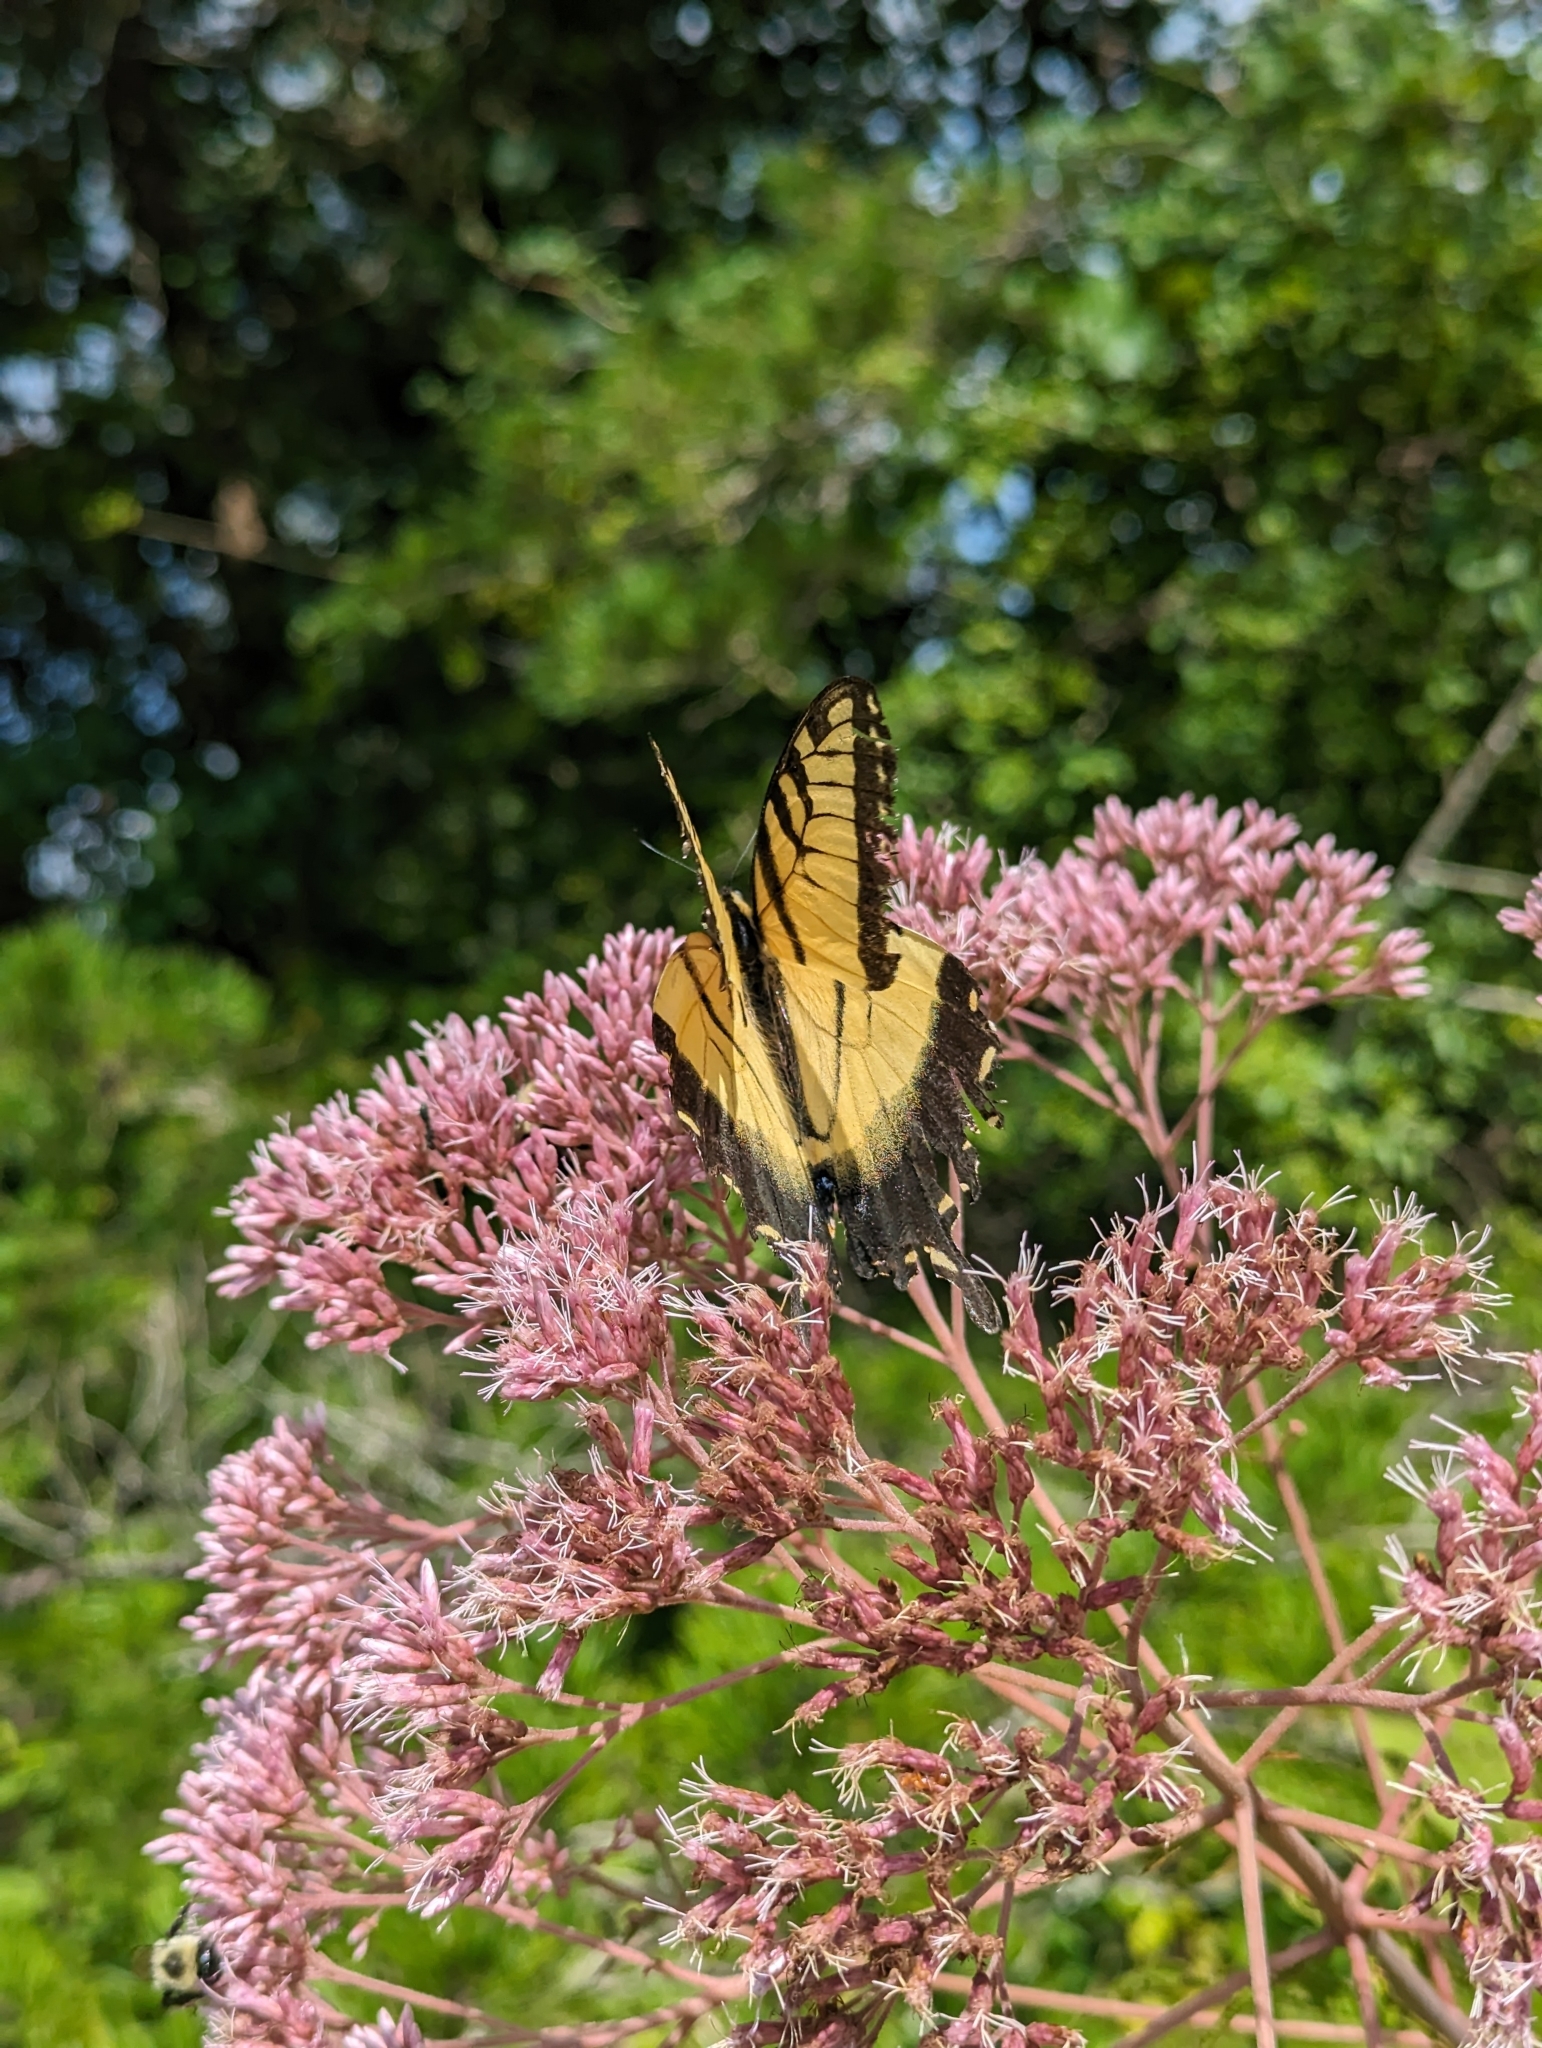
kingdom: Animalia
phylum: Arthropoda
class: Insecta
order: Lepidoptera
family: Papilionidae
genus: Papilio
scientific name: Papilio glaucus
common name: Tiger swallowtail
